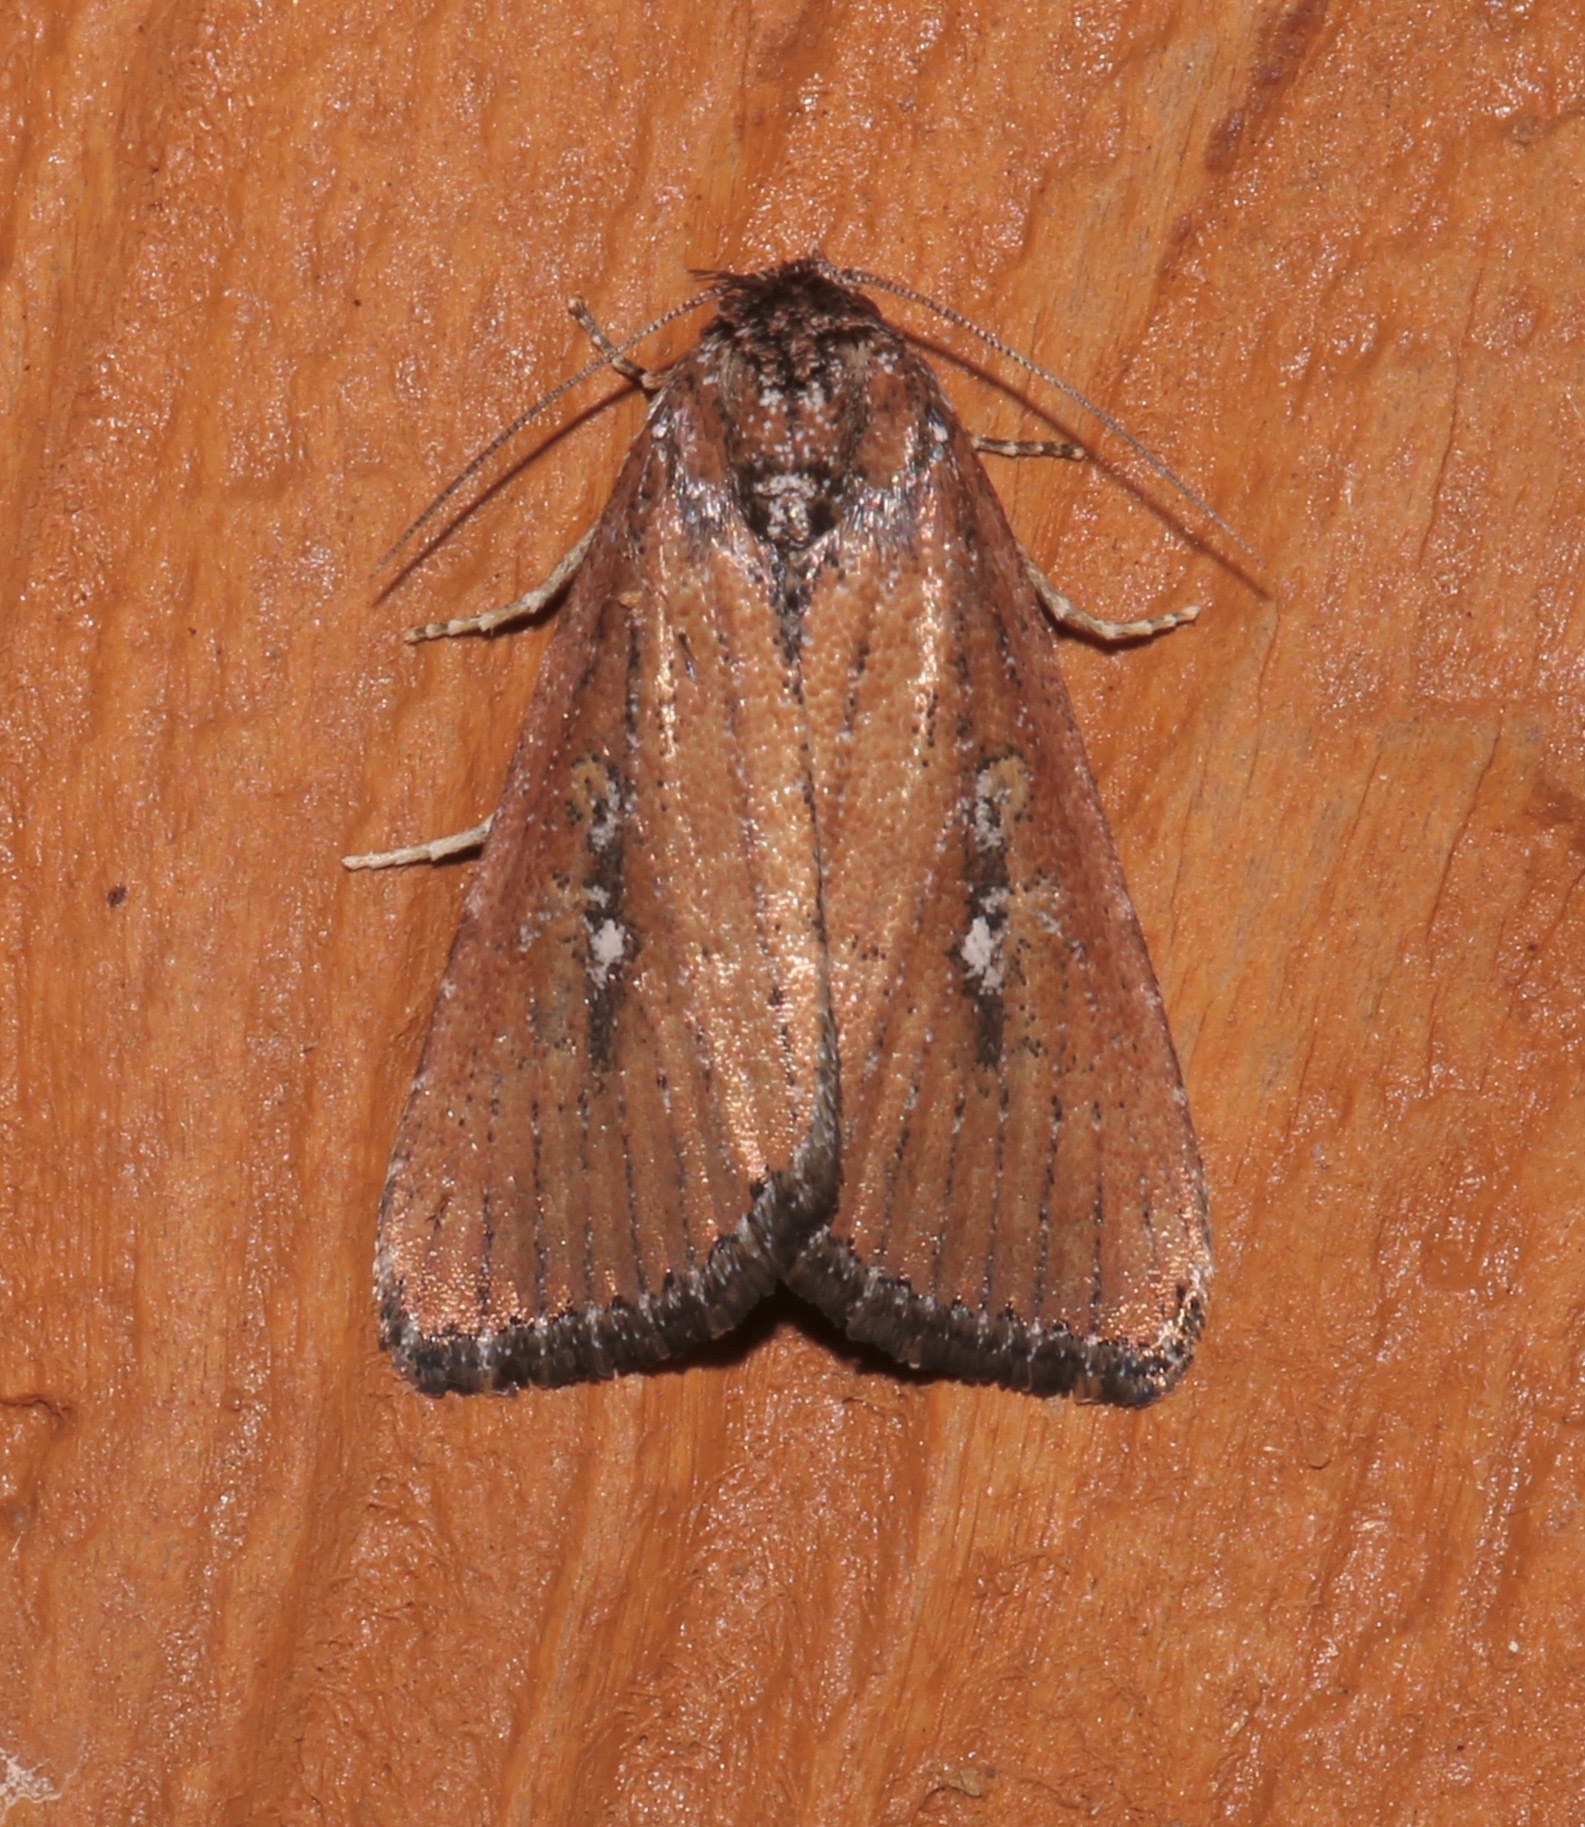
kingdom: Animalia
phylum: Arthropoda
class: Insecta
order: Lepidoptera
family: Noctuidae
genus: Condica
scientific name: Condica videns
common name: White-dotted groundling
